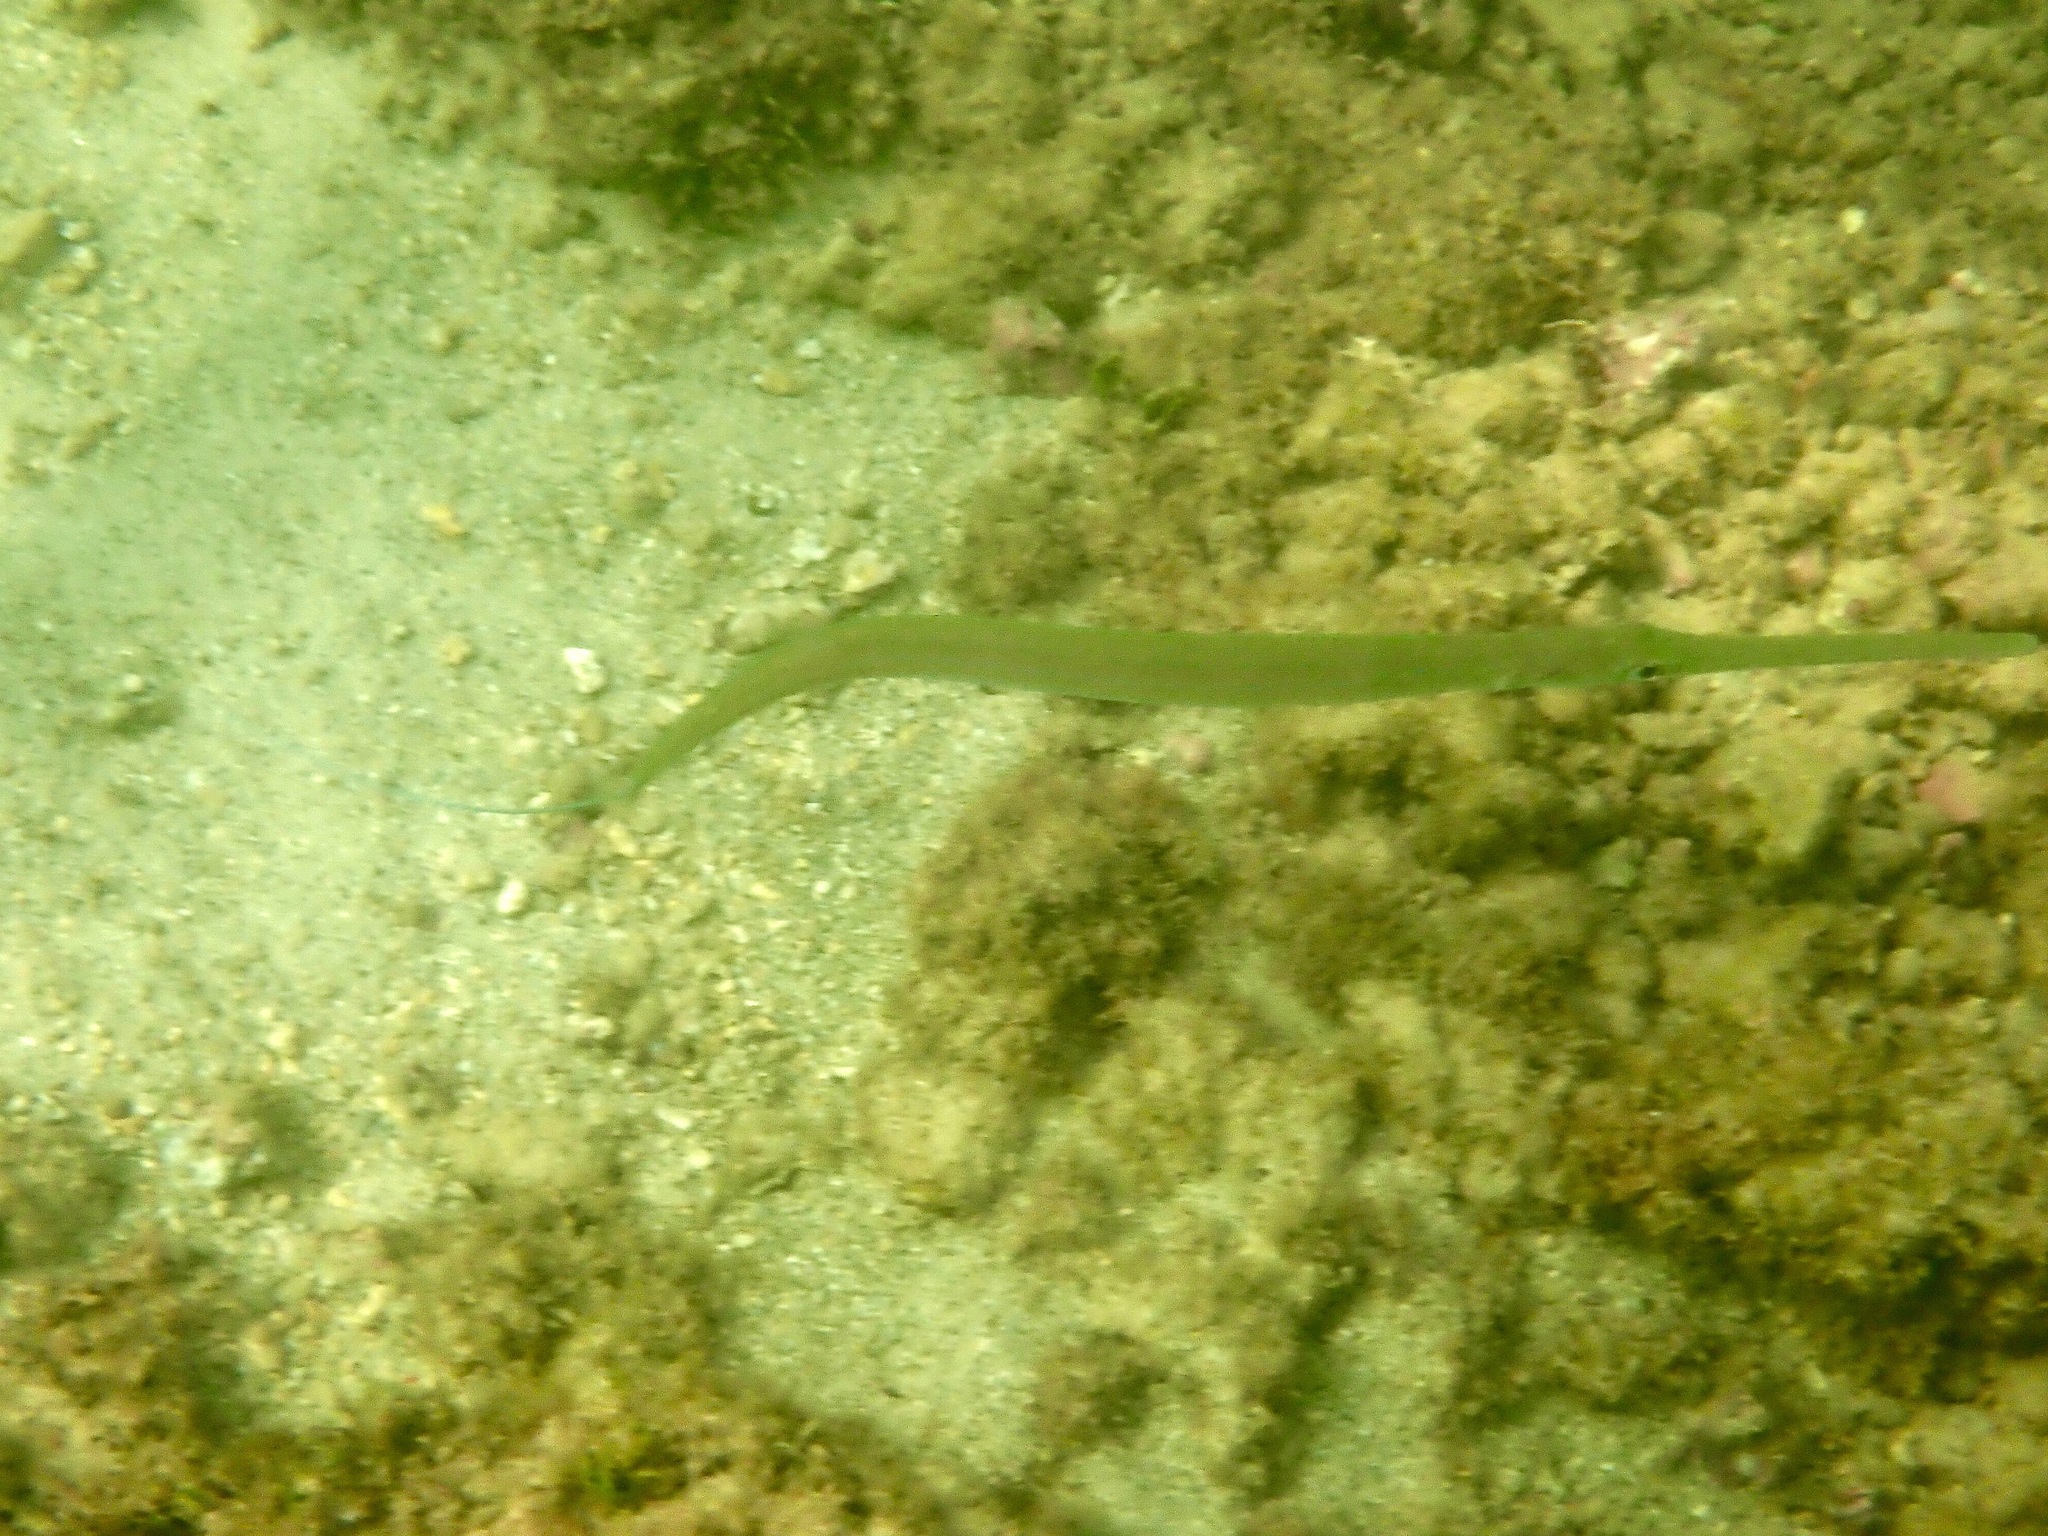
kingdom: Animalia
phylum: Chordata
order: Syngnathiformes
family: Fistulariidae
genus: Fistularia
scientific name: Fistularia commersonii
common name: Bluespotted cornetfish
